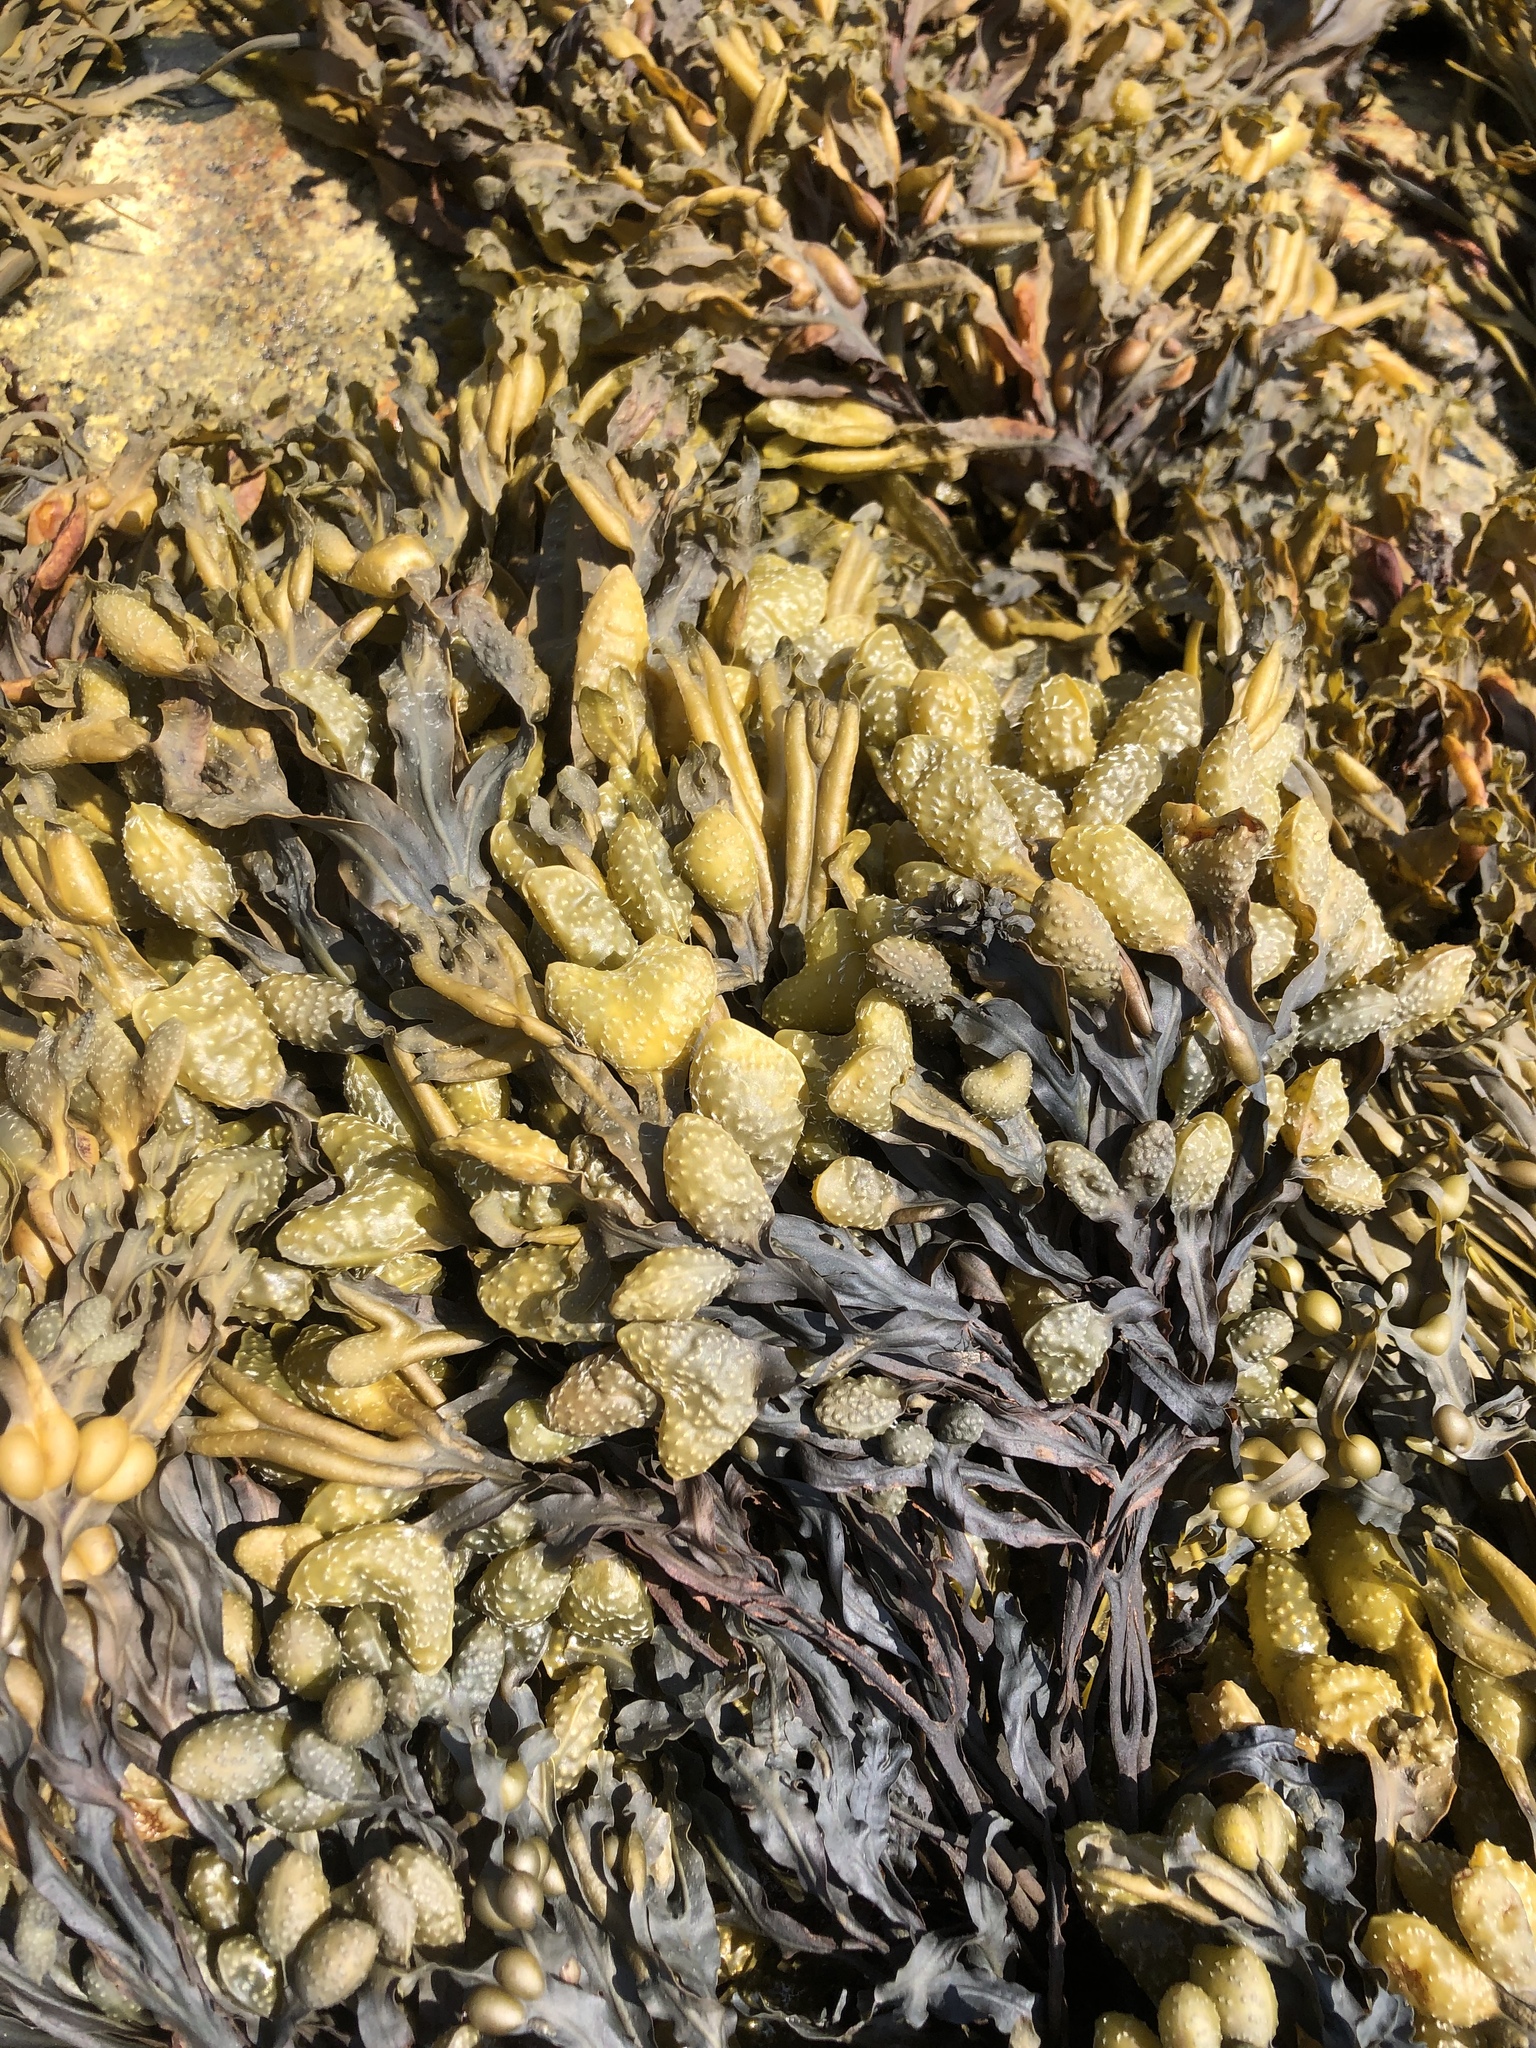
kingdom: Chromista
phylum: Ochrophyta
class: Phaeophyceae
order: Fucales
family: Fucaceae
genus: Fucus
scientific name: Fucus vesiculosus
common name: Bladder wrack
